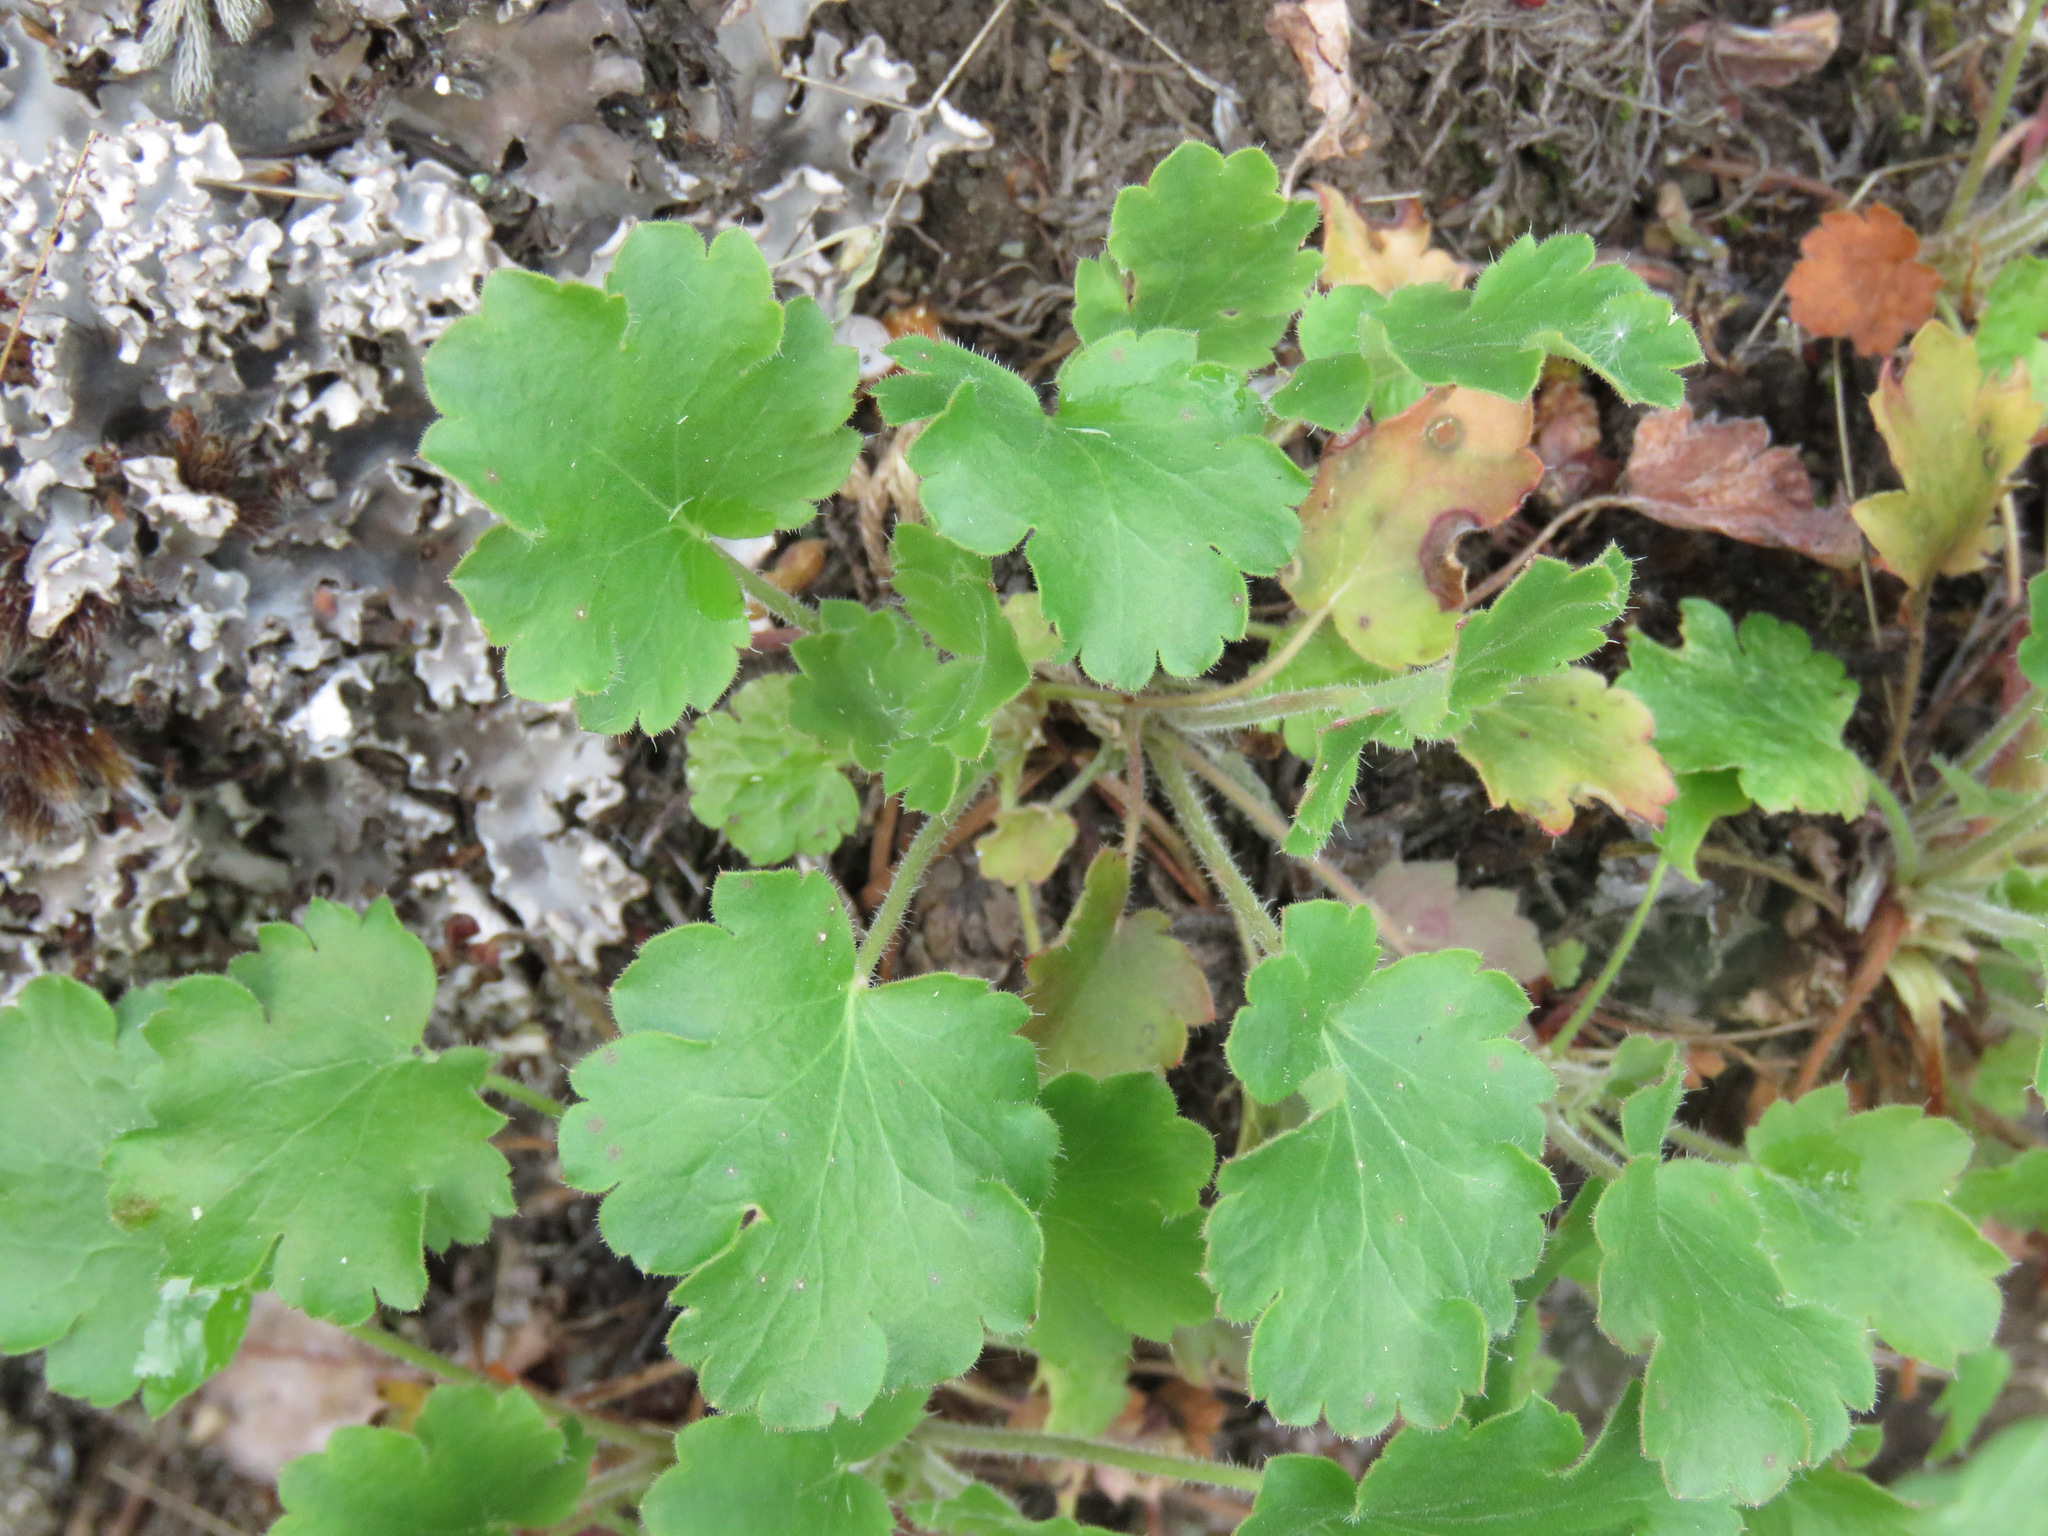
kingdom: Plantae
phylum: Tracheophyta
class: Magnoliopsida
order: Saxifragales
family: Saxifragaceae
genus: Heuchera
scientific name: Heuchera cylindrica
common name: Mat alumroot
